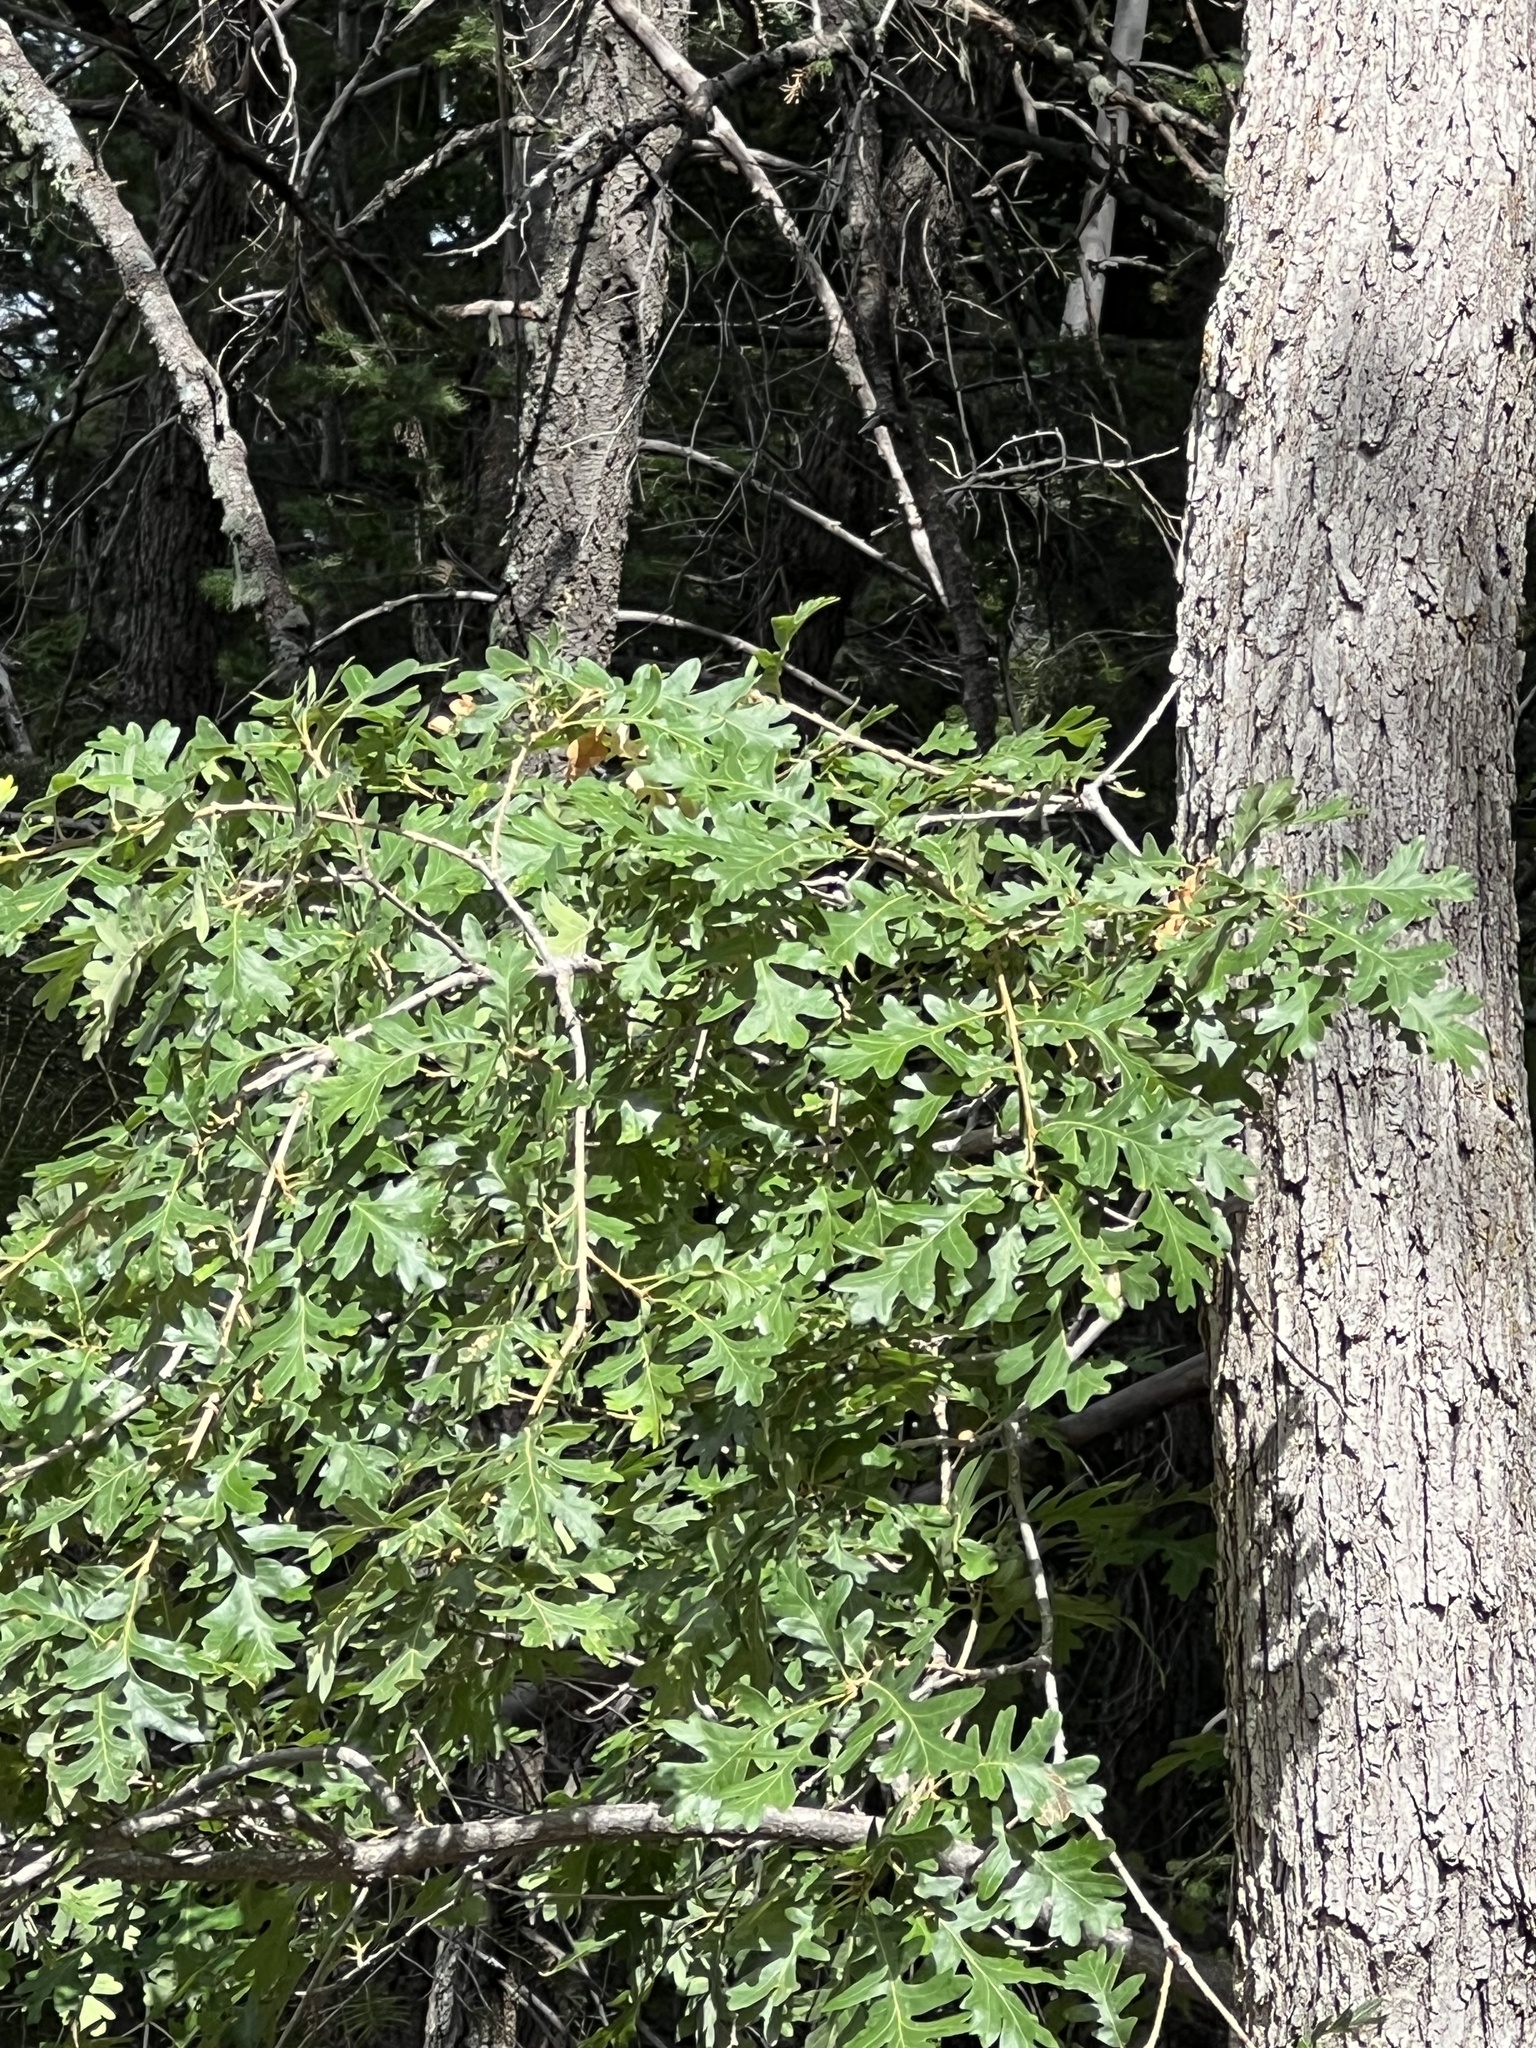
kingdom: Plantae
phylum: Tracheophyta
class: Magnoliopsida
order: Fagales
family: Fagaceae
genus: Quercus
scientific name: Quercus gambelii
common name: Gambel oak
